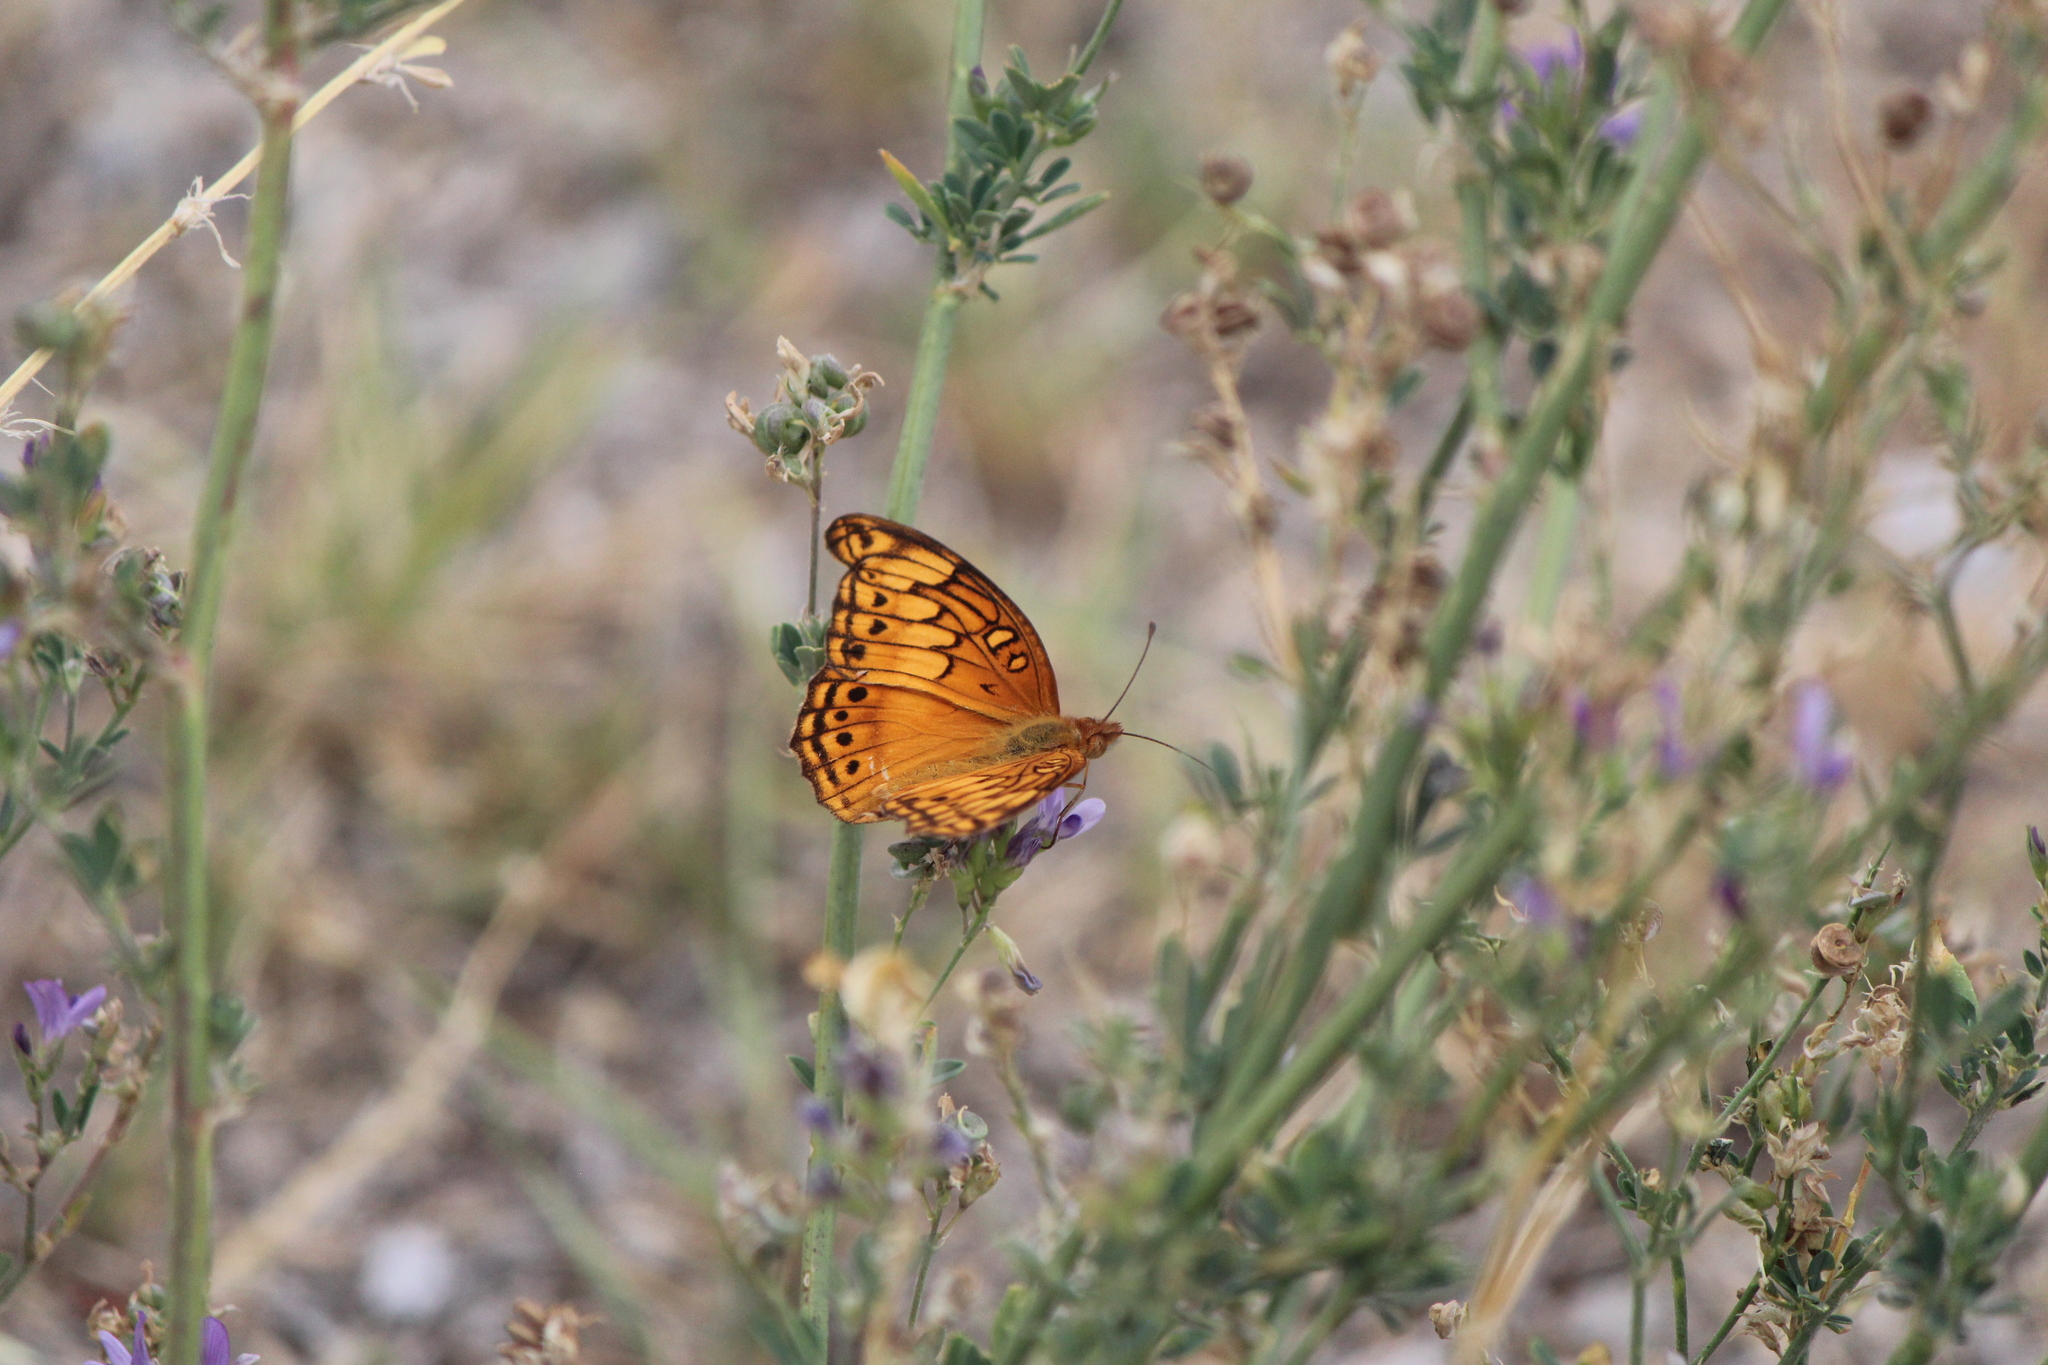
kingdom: Animalia
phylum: Arthropoda
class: Insecta
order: Lepidoptera
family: Nymphalidae
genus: Euptoieta
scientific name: Euptoieta hegesia
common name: Mexican fritillary
